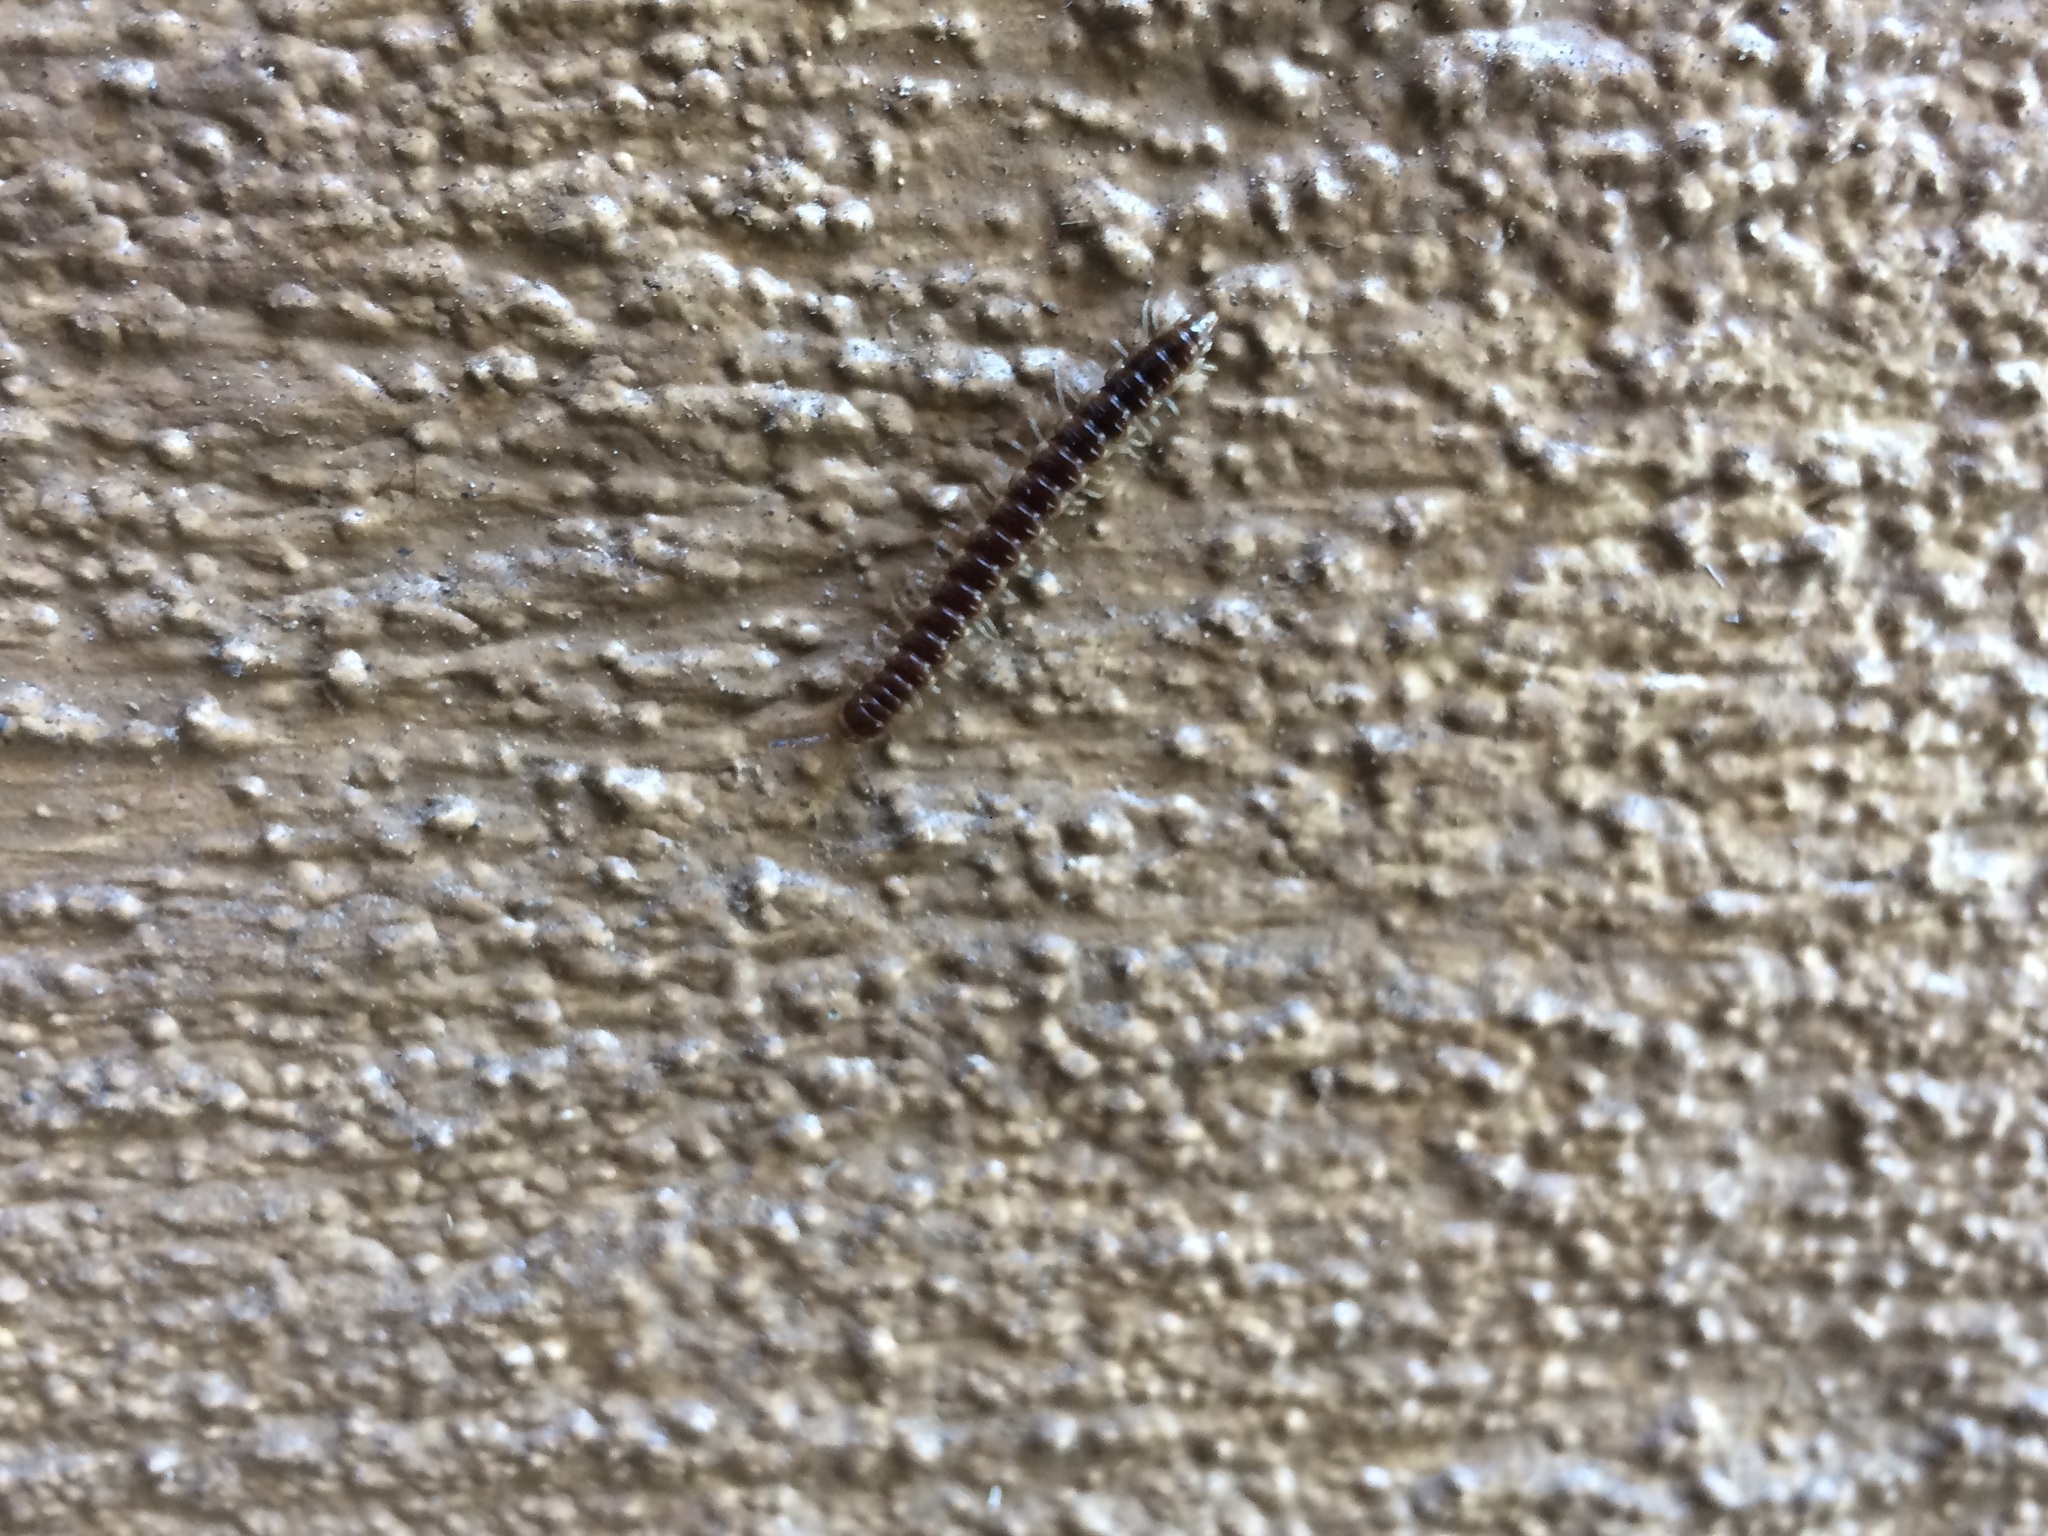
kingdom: Animalia
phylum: Arthropoda
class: Diplopoda
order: Polydesmida
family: Paradoxosomatidae
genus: Oxidus
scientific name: Oxidus gracilis
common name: Greenhouse millipede
